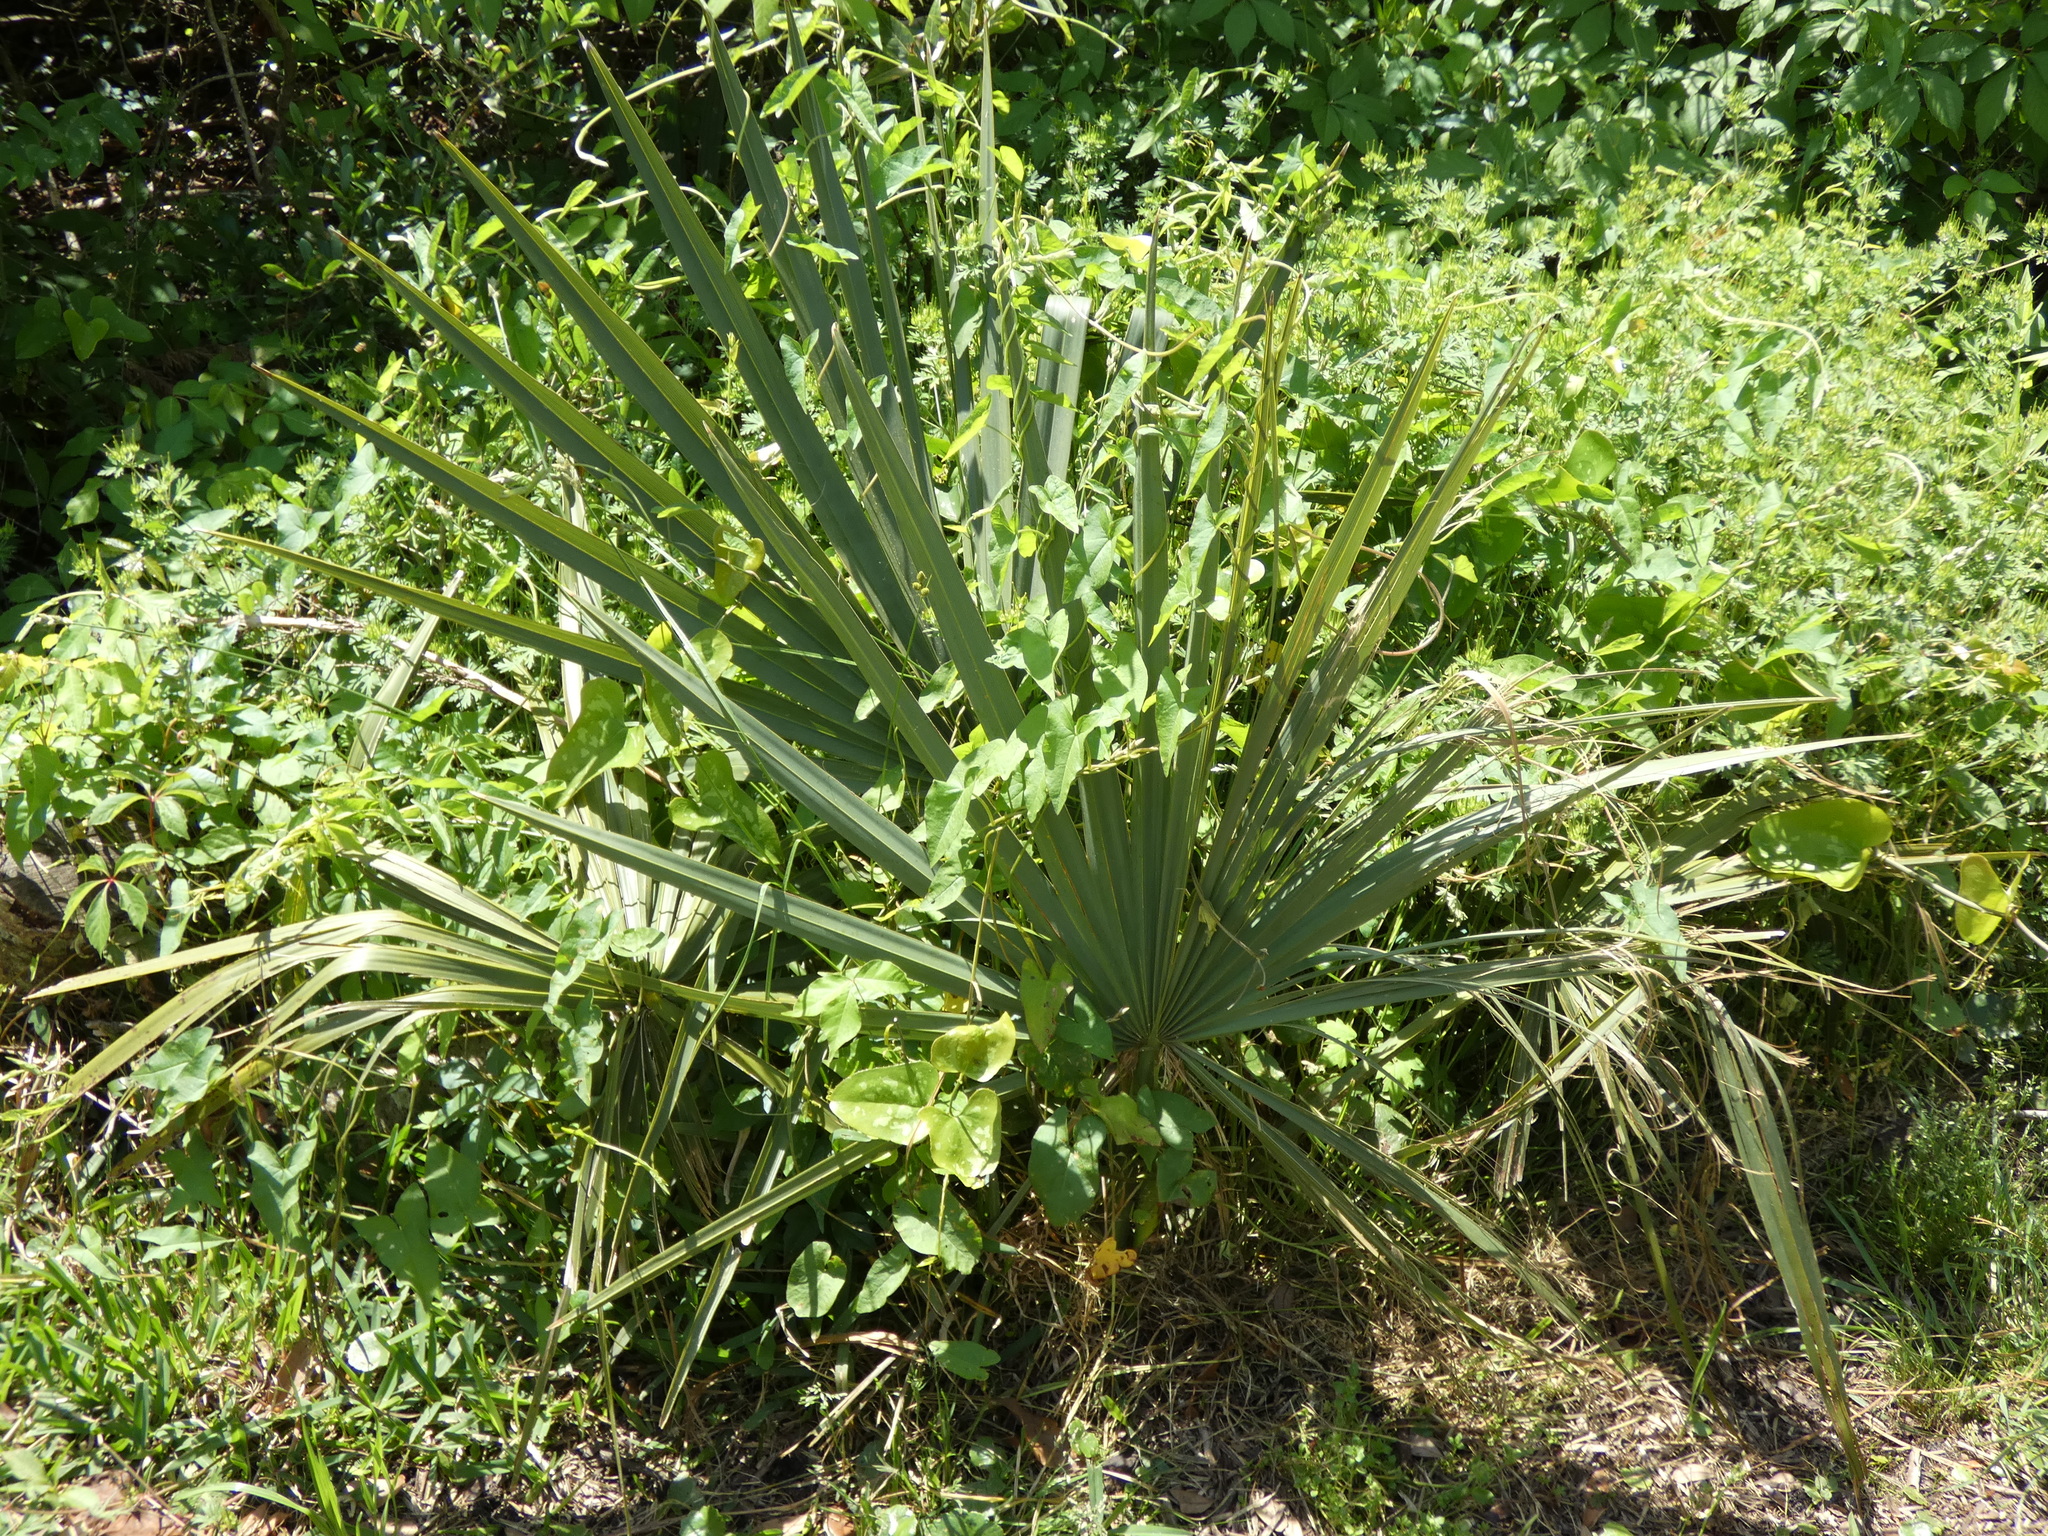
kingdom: Plantae
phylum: Tracheophyta
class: Liliopsida
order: Arecales
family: Arecaceae
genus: Sabal
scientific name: Sabal minor
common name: Dwarf palmetto
